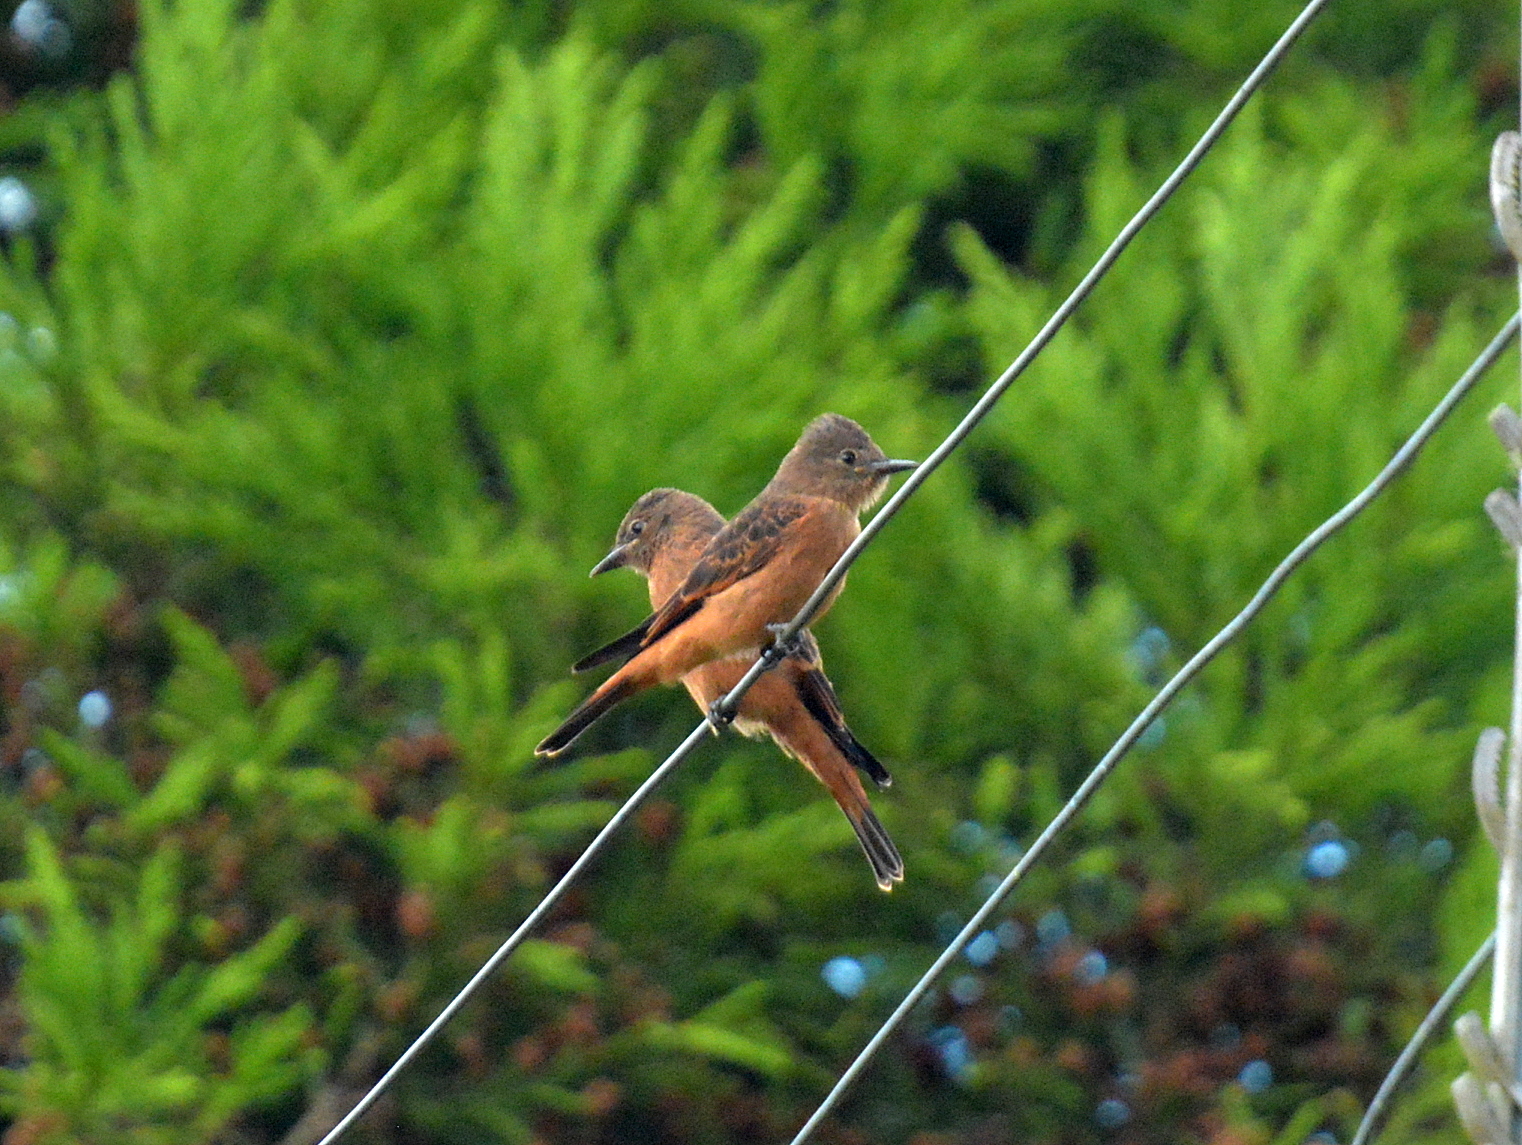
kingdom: Animalia
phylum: Chordata
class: Aves
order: Passeriformes
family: Tyrannidae
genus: Hirundinea
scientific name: Hirundinea ferruginea
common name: Cliff flycatcher
